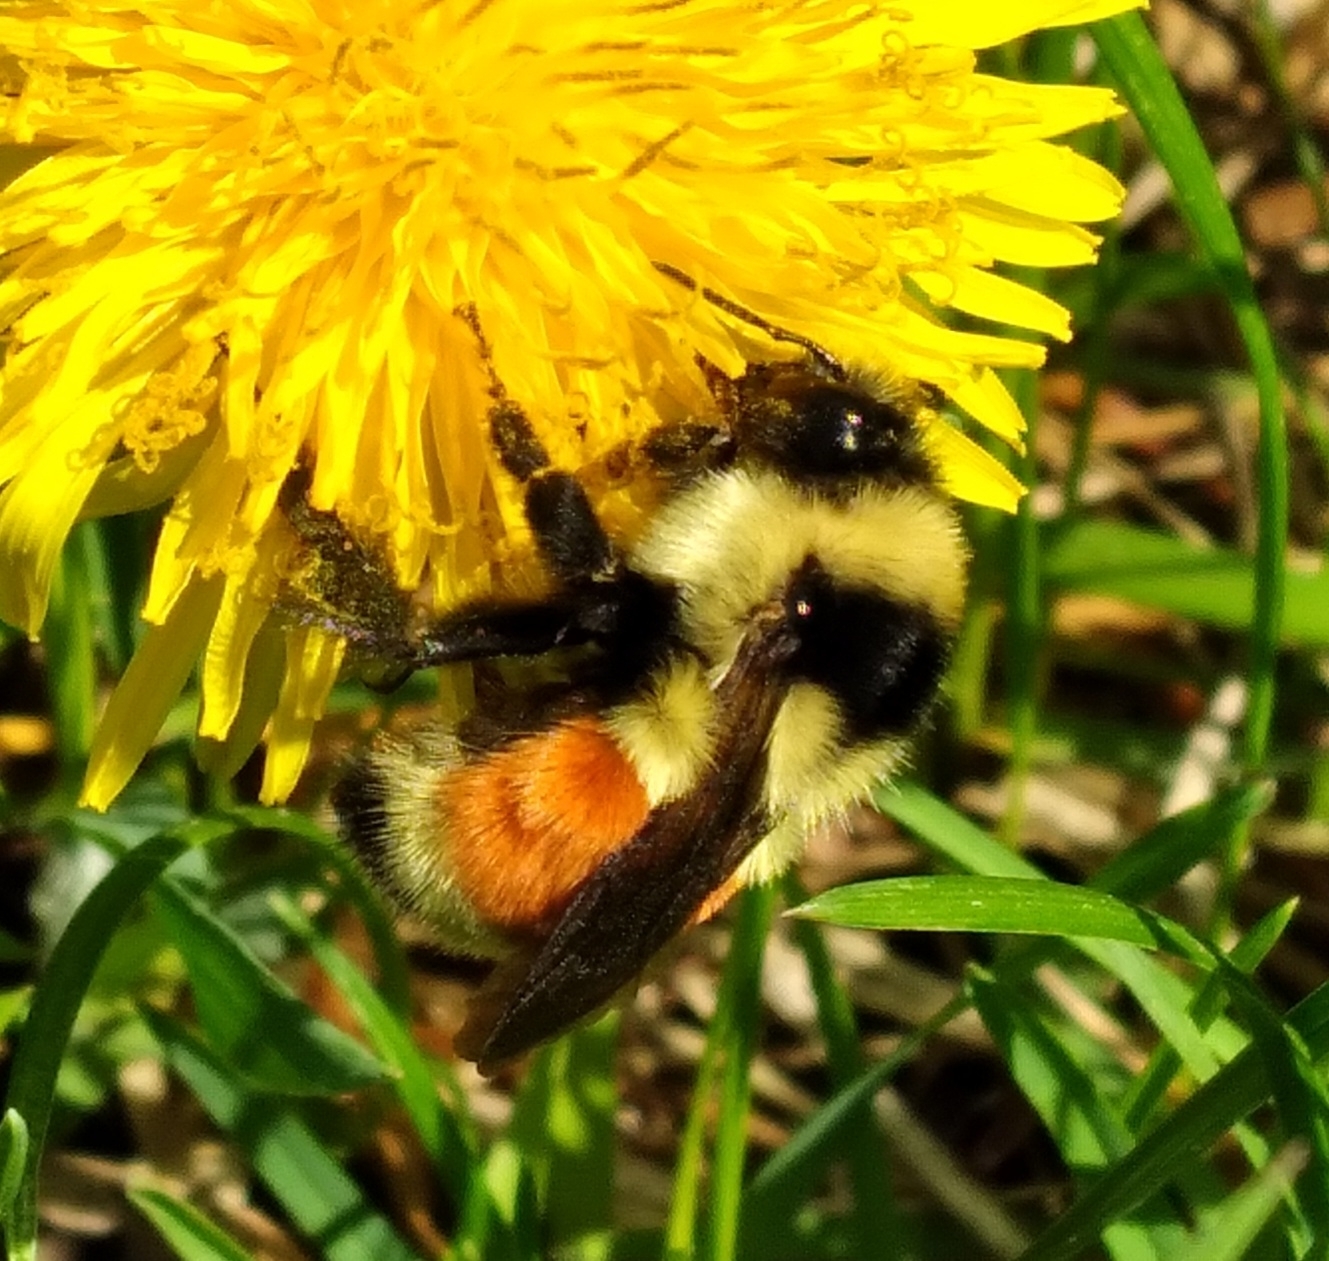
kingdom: Animalia
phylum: Arthropoda
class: Insecta
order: Hymenoptera
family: Apidae
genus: Bombus
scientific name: Bombus ternarius
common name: Tri-colored bumble bee
